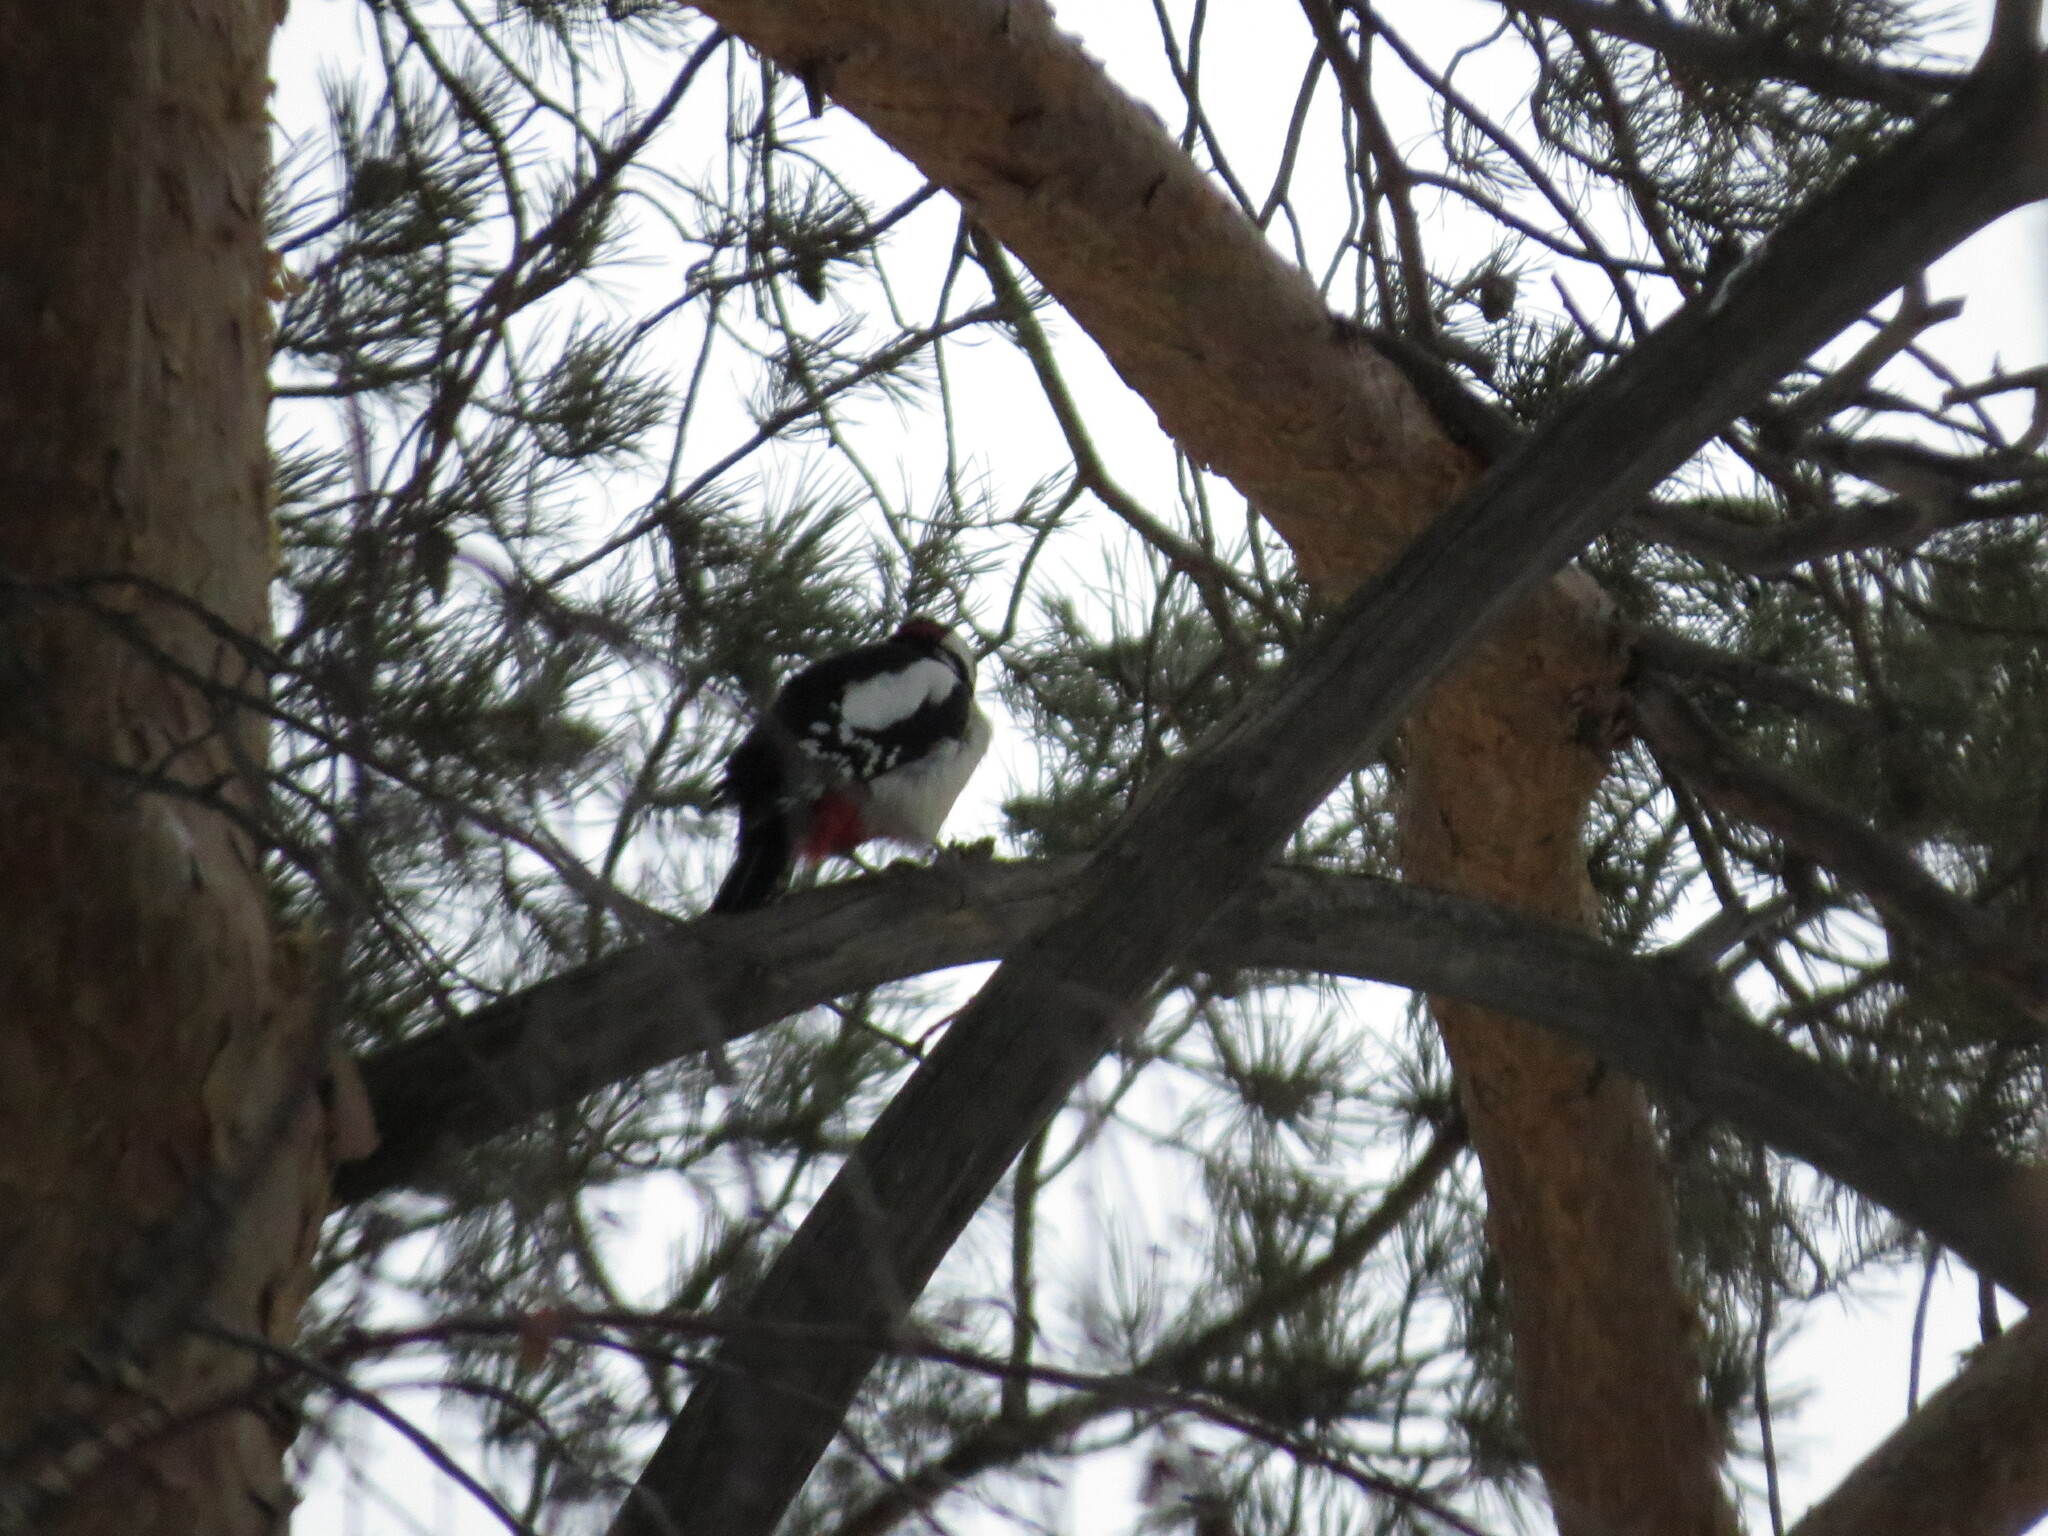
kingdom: Animalia
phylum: Chordata
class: Aves
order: Piciformes
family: Picidae
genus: Dendrocopos
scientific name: Dendrocopos major
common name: Great spotted woodpecker
